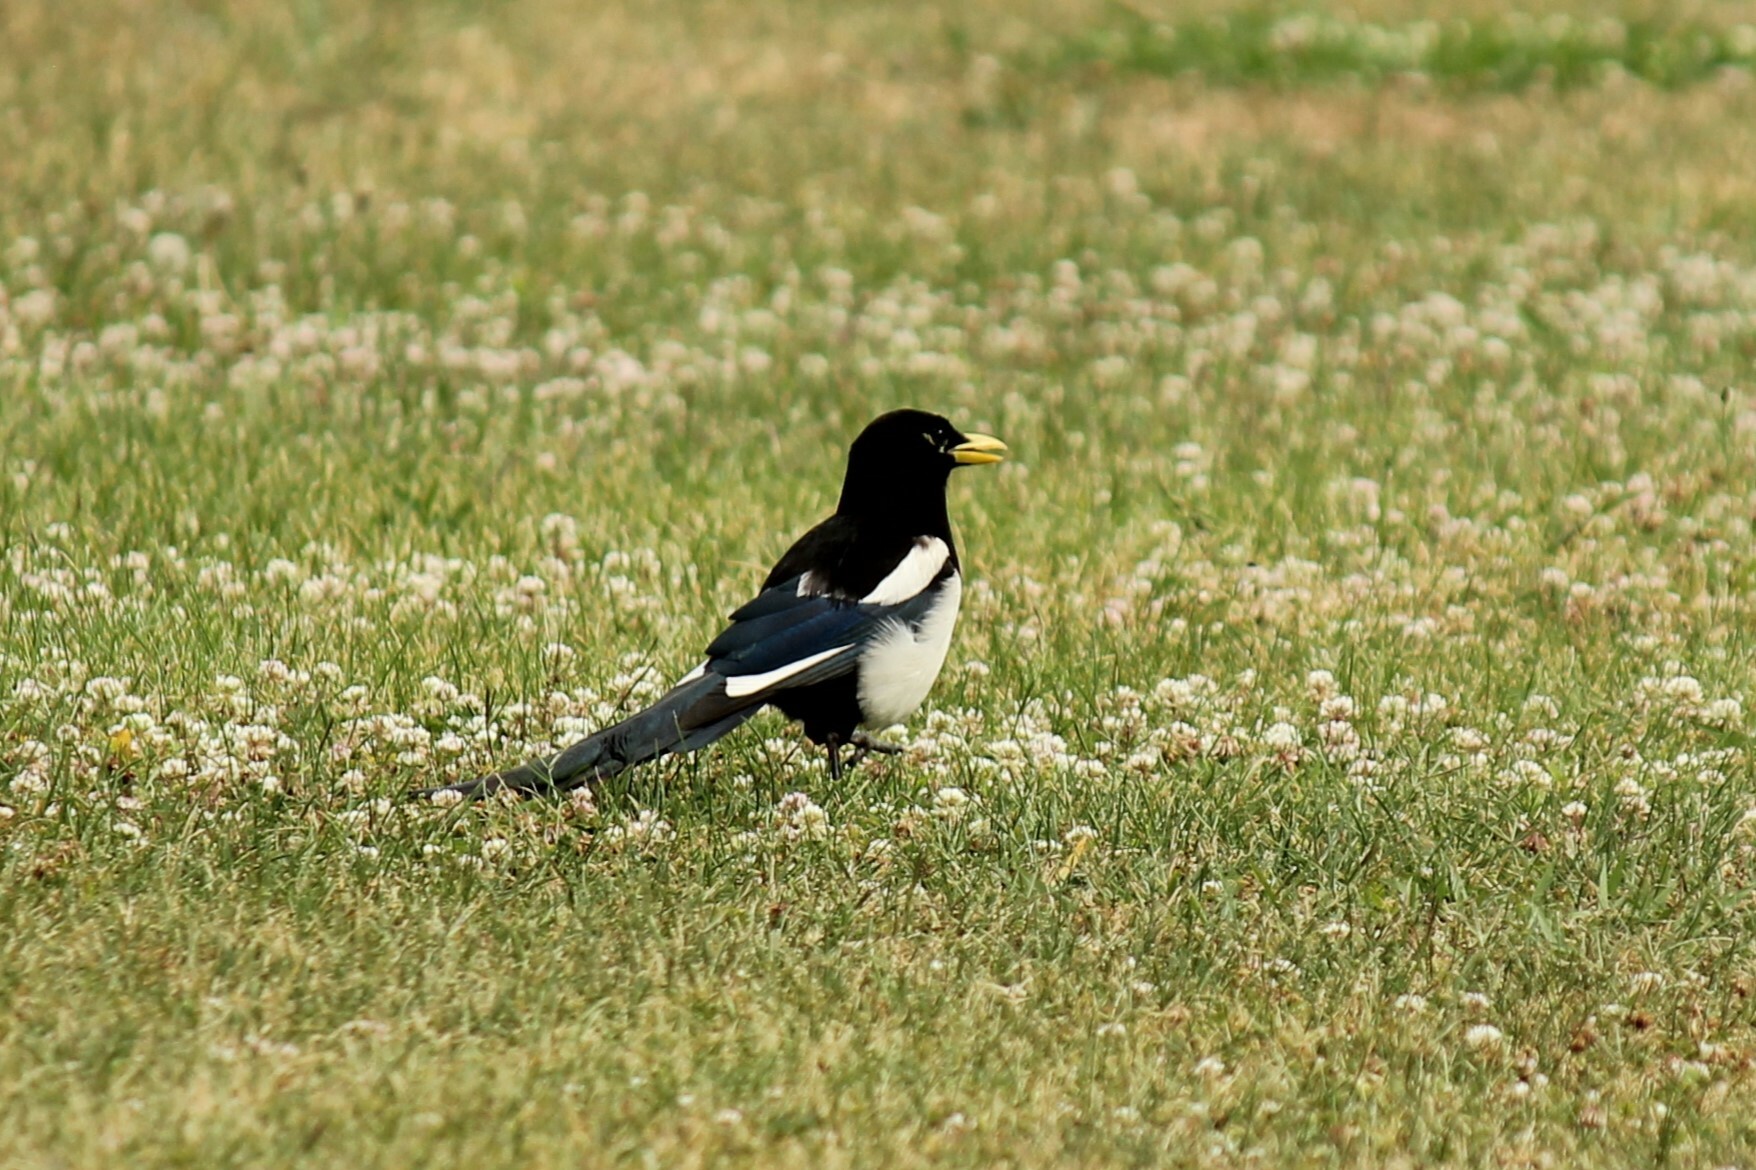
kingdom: Animalia
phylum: Chordata
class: Aves
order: Passeriformes
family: Corvidae
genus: Pica
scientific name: Pica nuttalli
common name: Yellow-billed magpie
